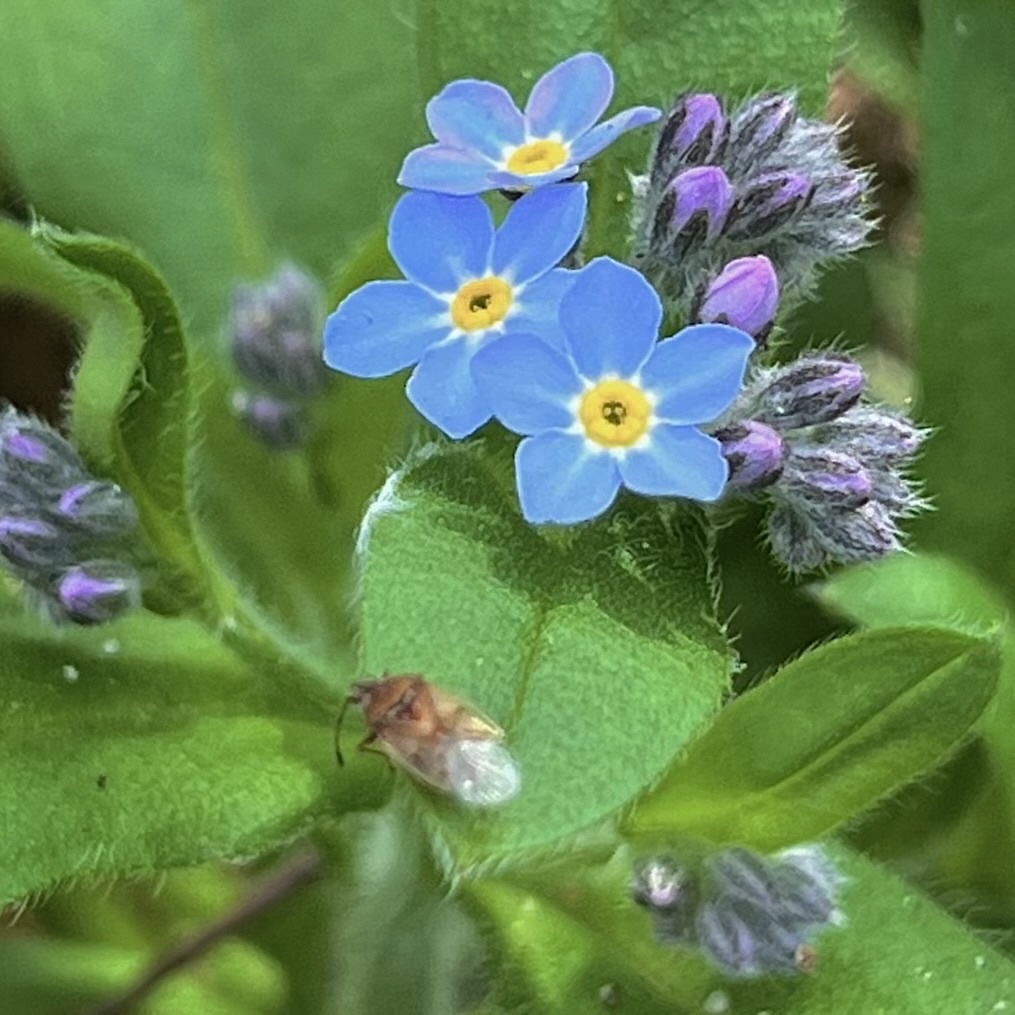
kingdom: Animalia
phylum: Arthropoda
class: Insecta
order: Hemiptera
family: Lygaeidae
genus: Kleidocerys
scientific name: Kleidocerys resedae
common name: Birch catkin bug
